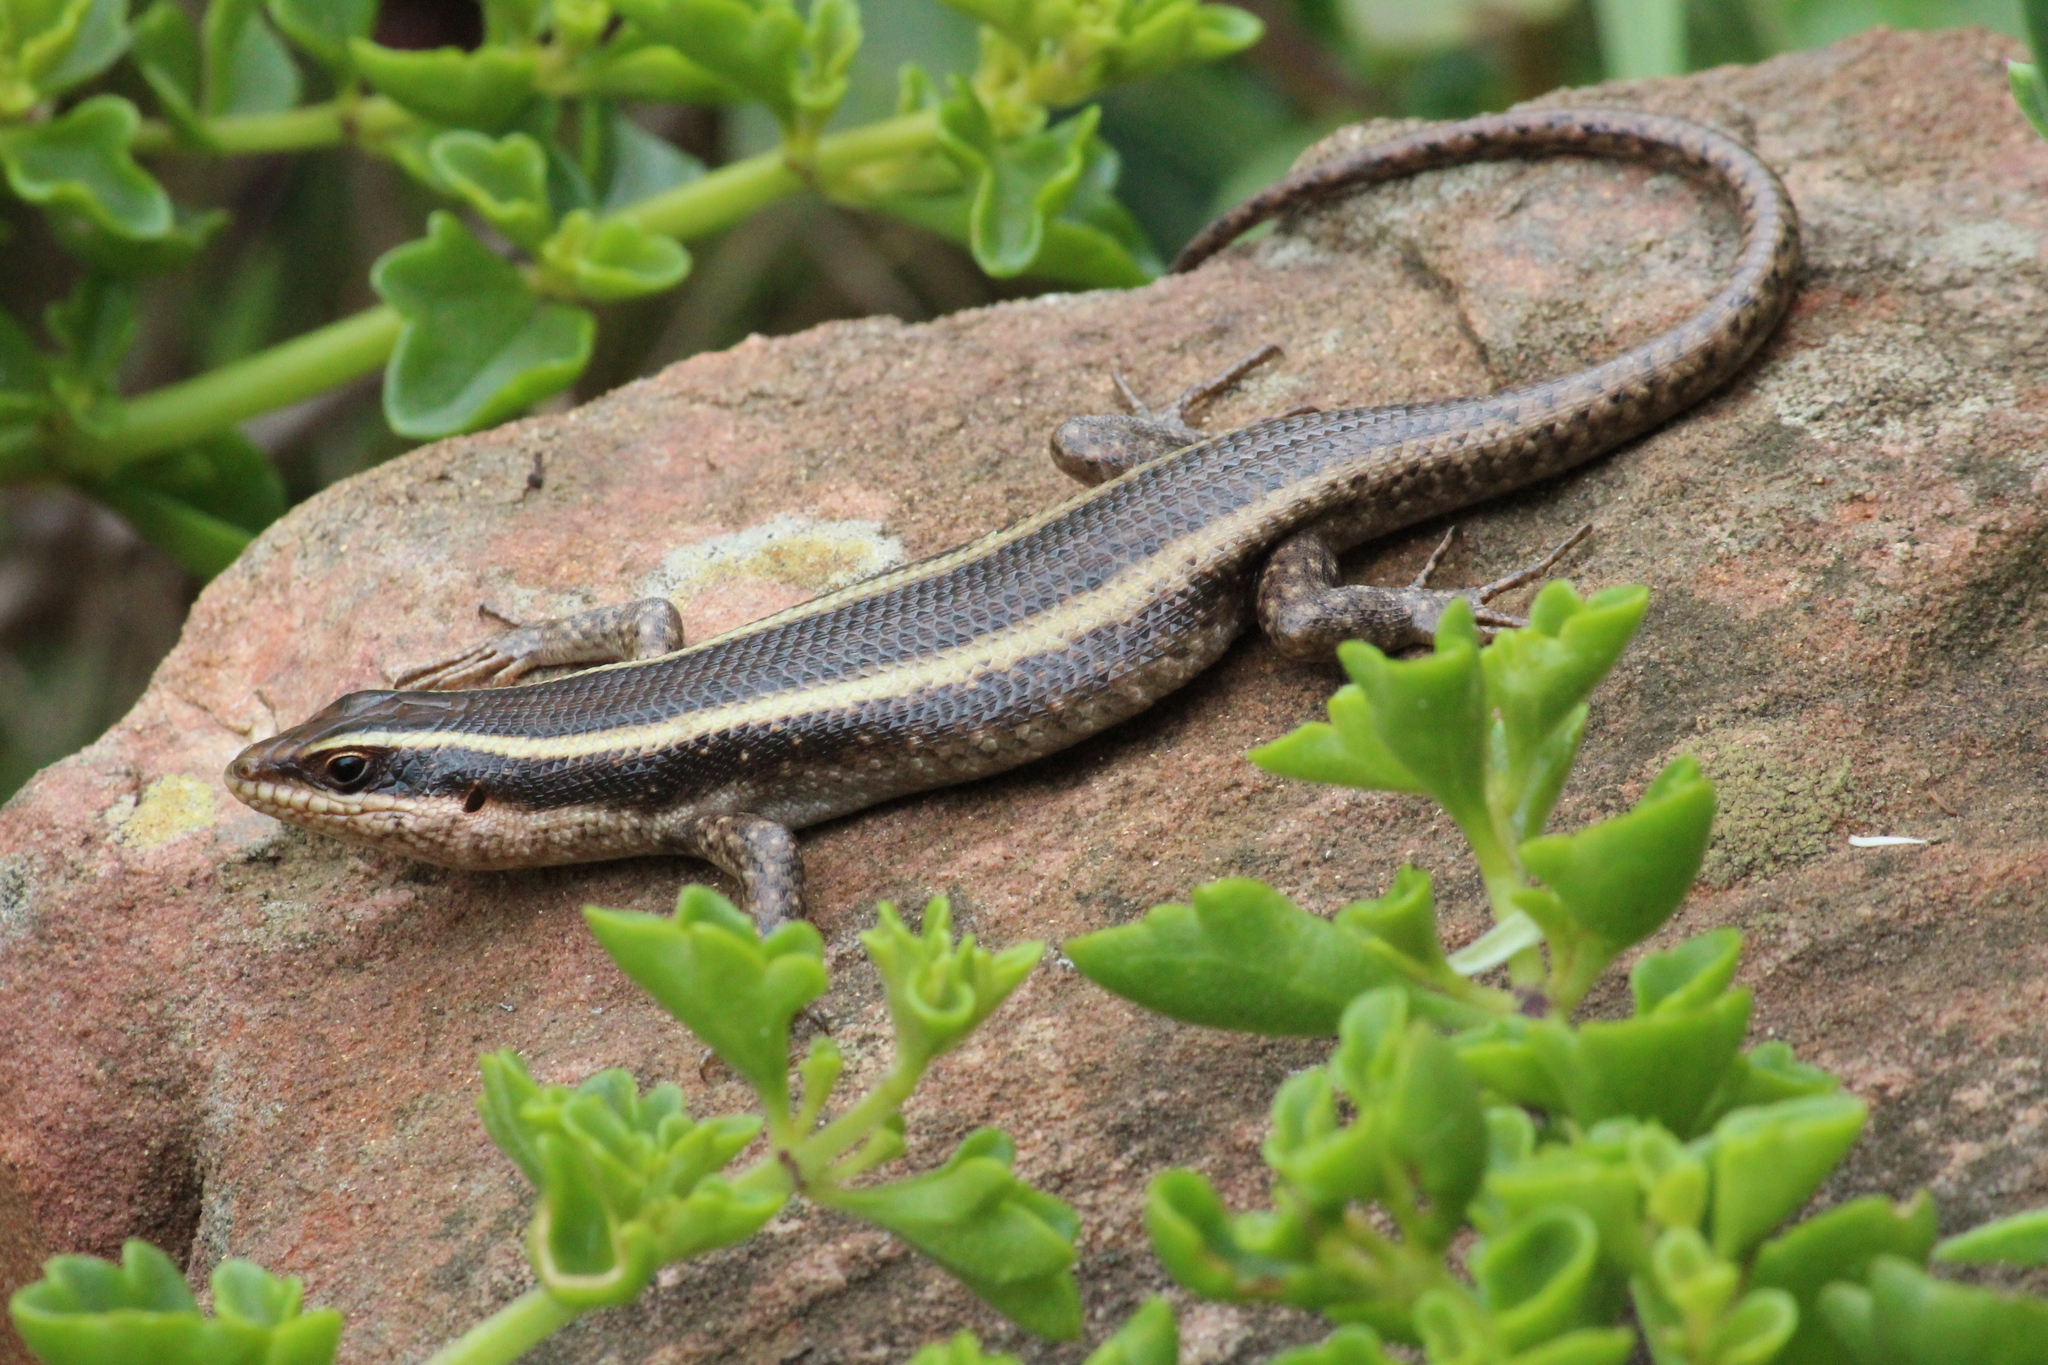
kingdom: Animalia
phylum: Chordata
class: Squamata
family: Scincidae
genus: Trachylepis
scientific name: Trachylepis striata
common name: African striped mabuya
